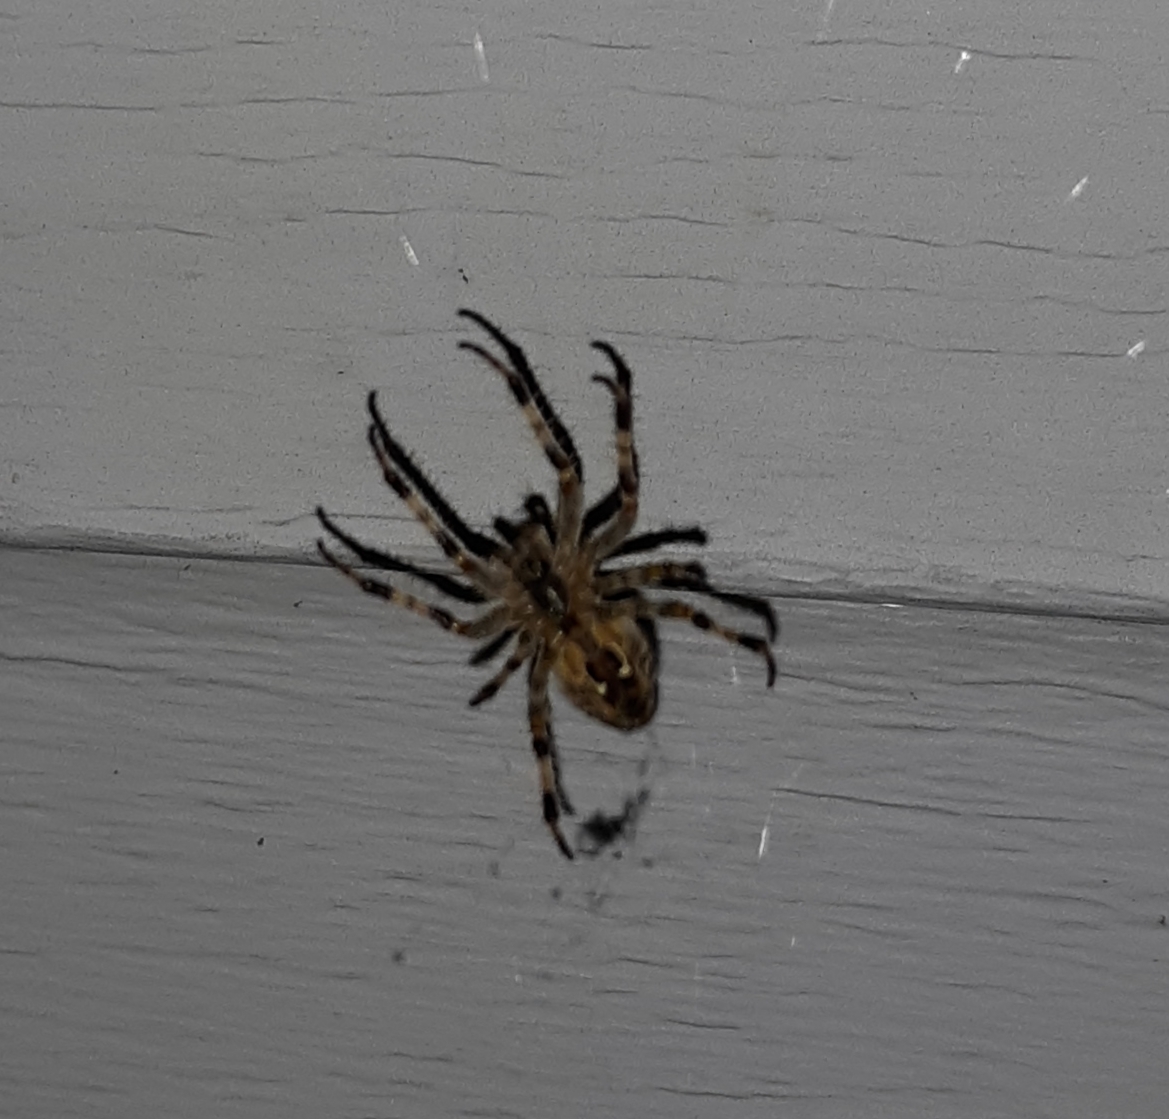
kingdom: Animalia
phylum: Arthropoda
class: Arachnida
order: Araneae
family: Araneidae
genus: Araneus
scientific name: Araneus diadematus
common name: Cross orbweaver
